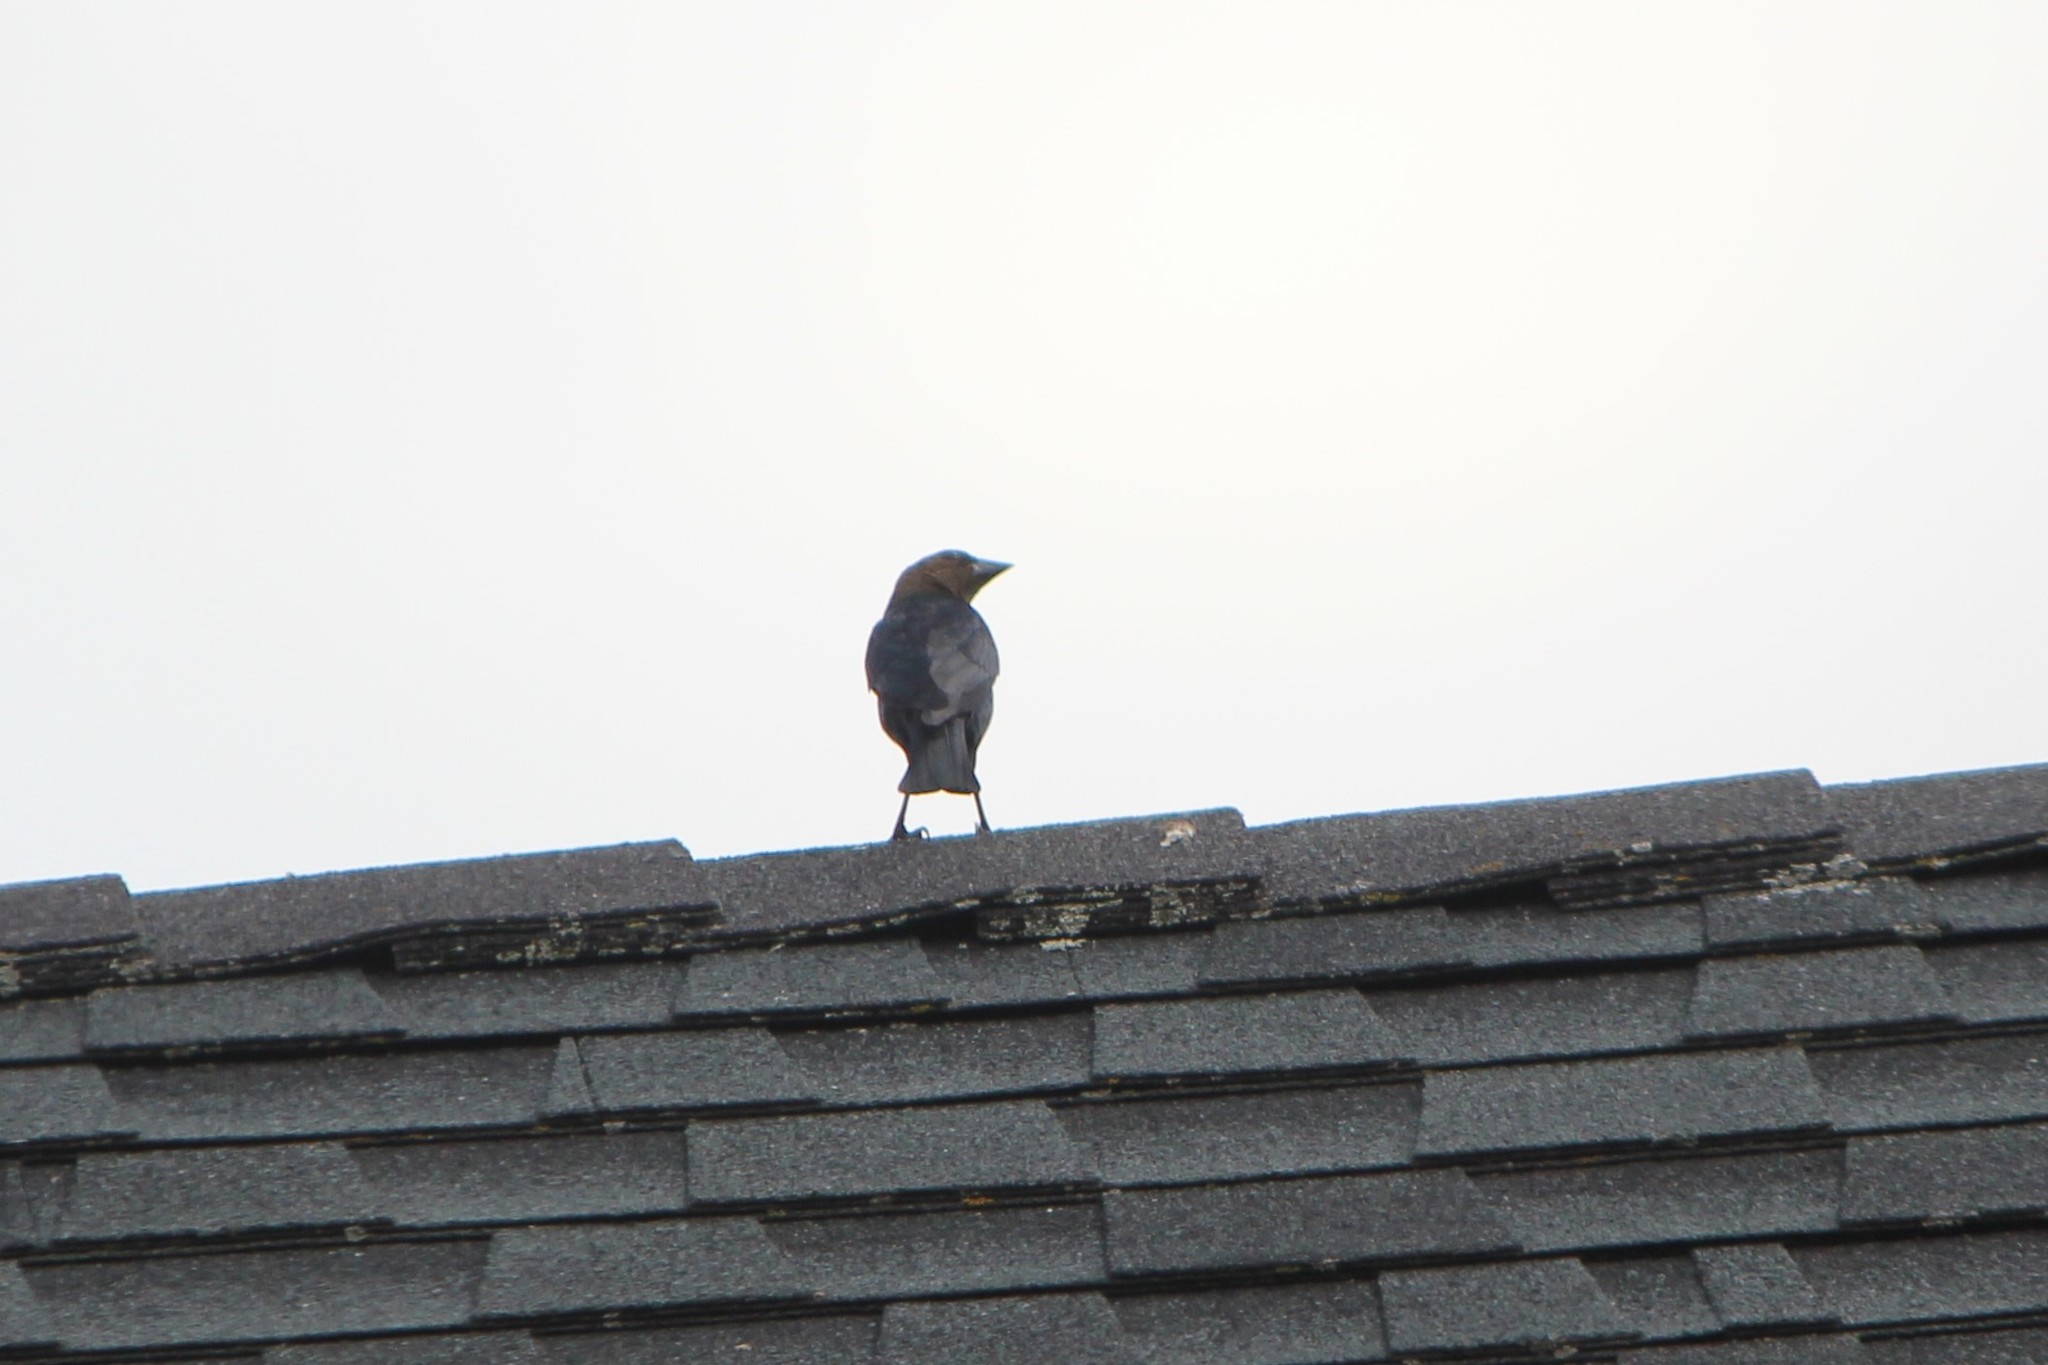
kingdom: Animalia
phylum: Chordata
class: Aves
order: Passeriformes
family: Icteridae
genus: Molothrus
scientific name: Molothrus ater
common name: Brown-headed cowbird
